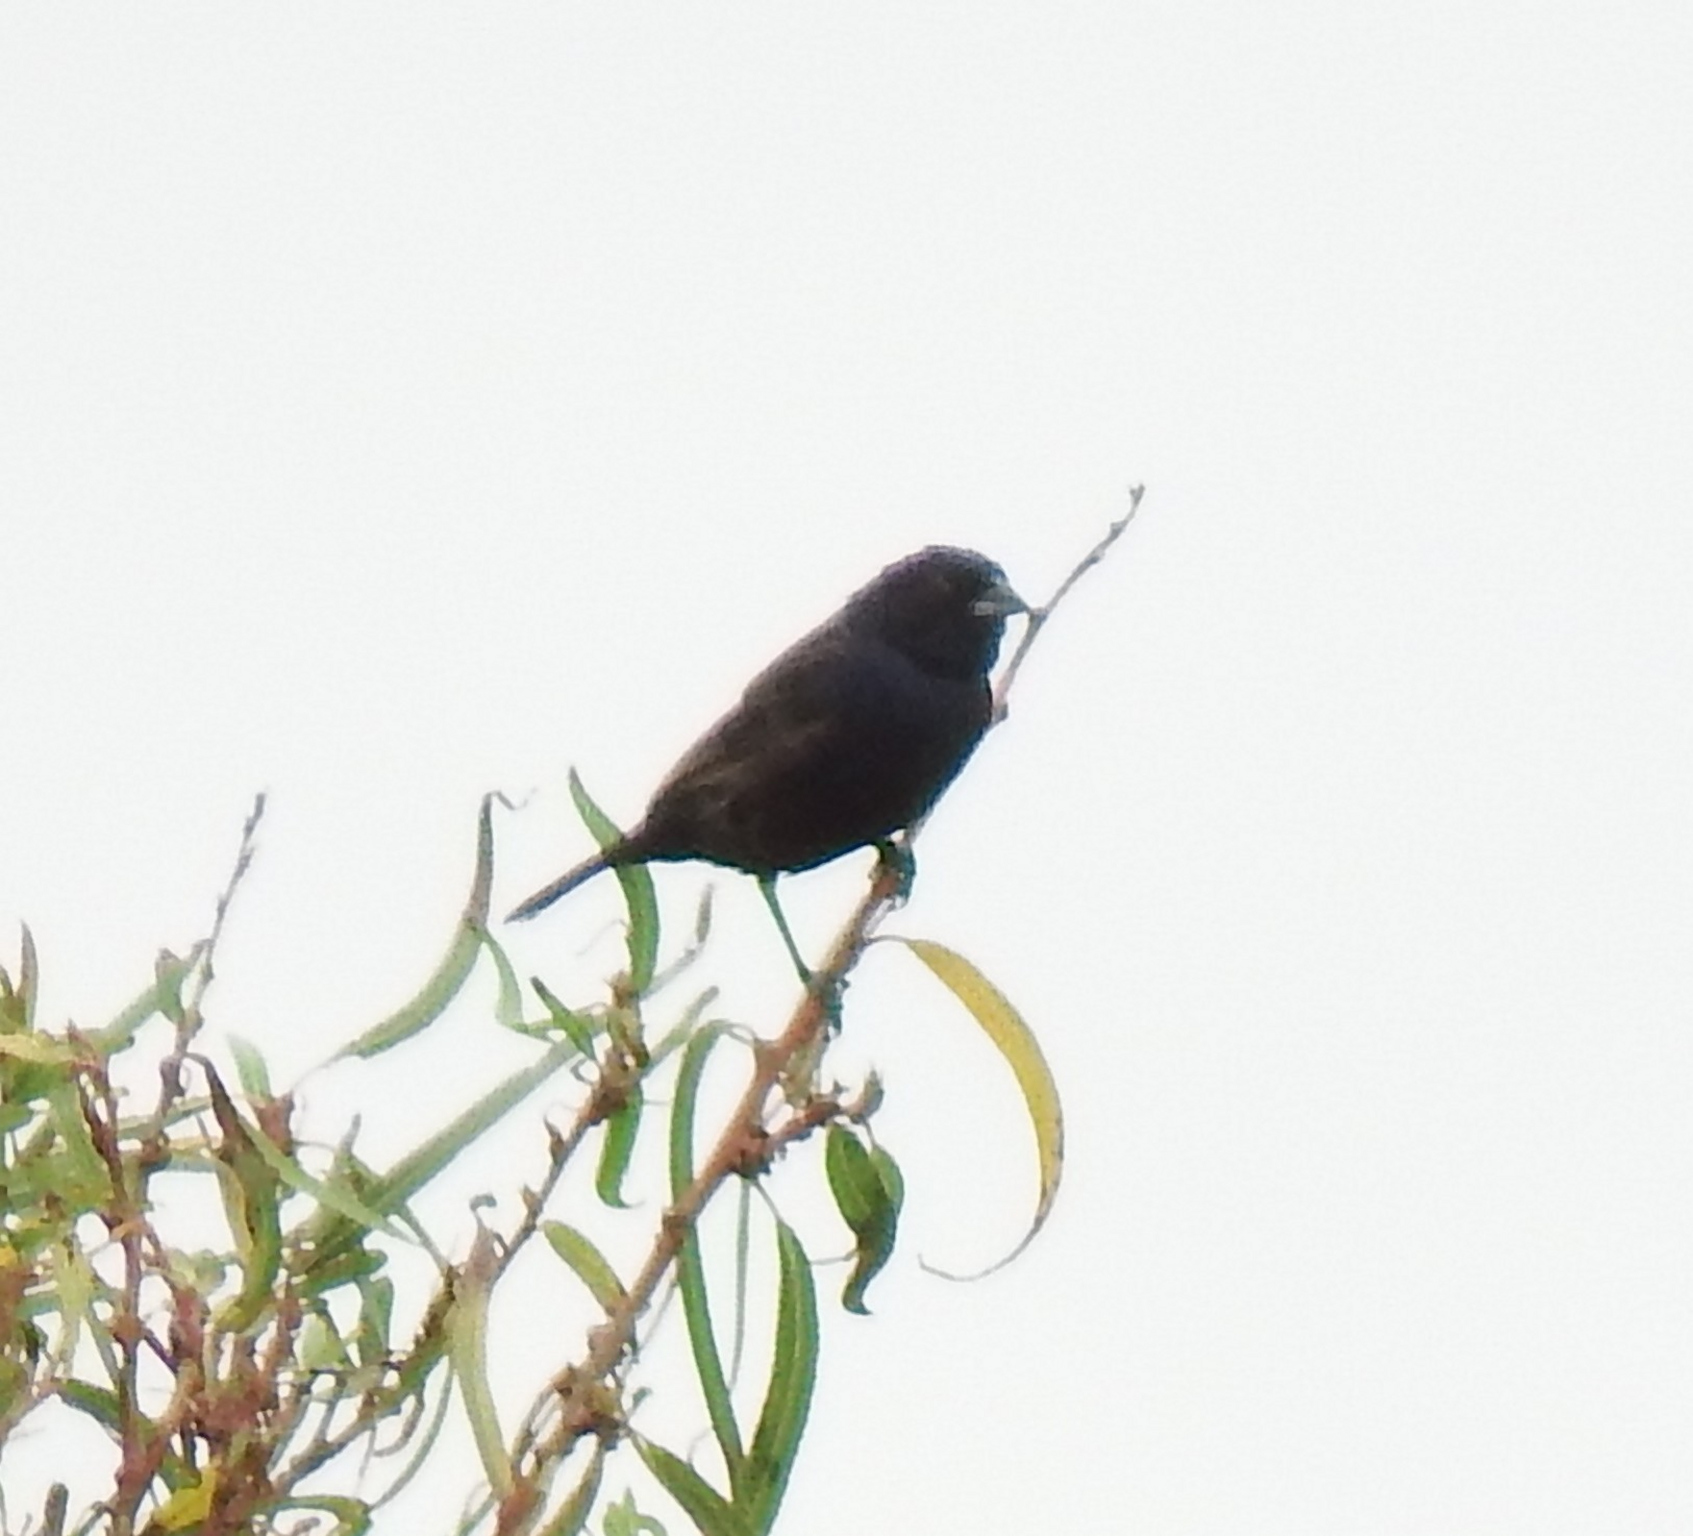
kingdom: Animalia
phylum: Chordata
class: Aves
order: Passeriformes
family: Thraupidae
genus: Volatinia
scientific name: Volatinia jacarina
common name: Blue-black grassquit
